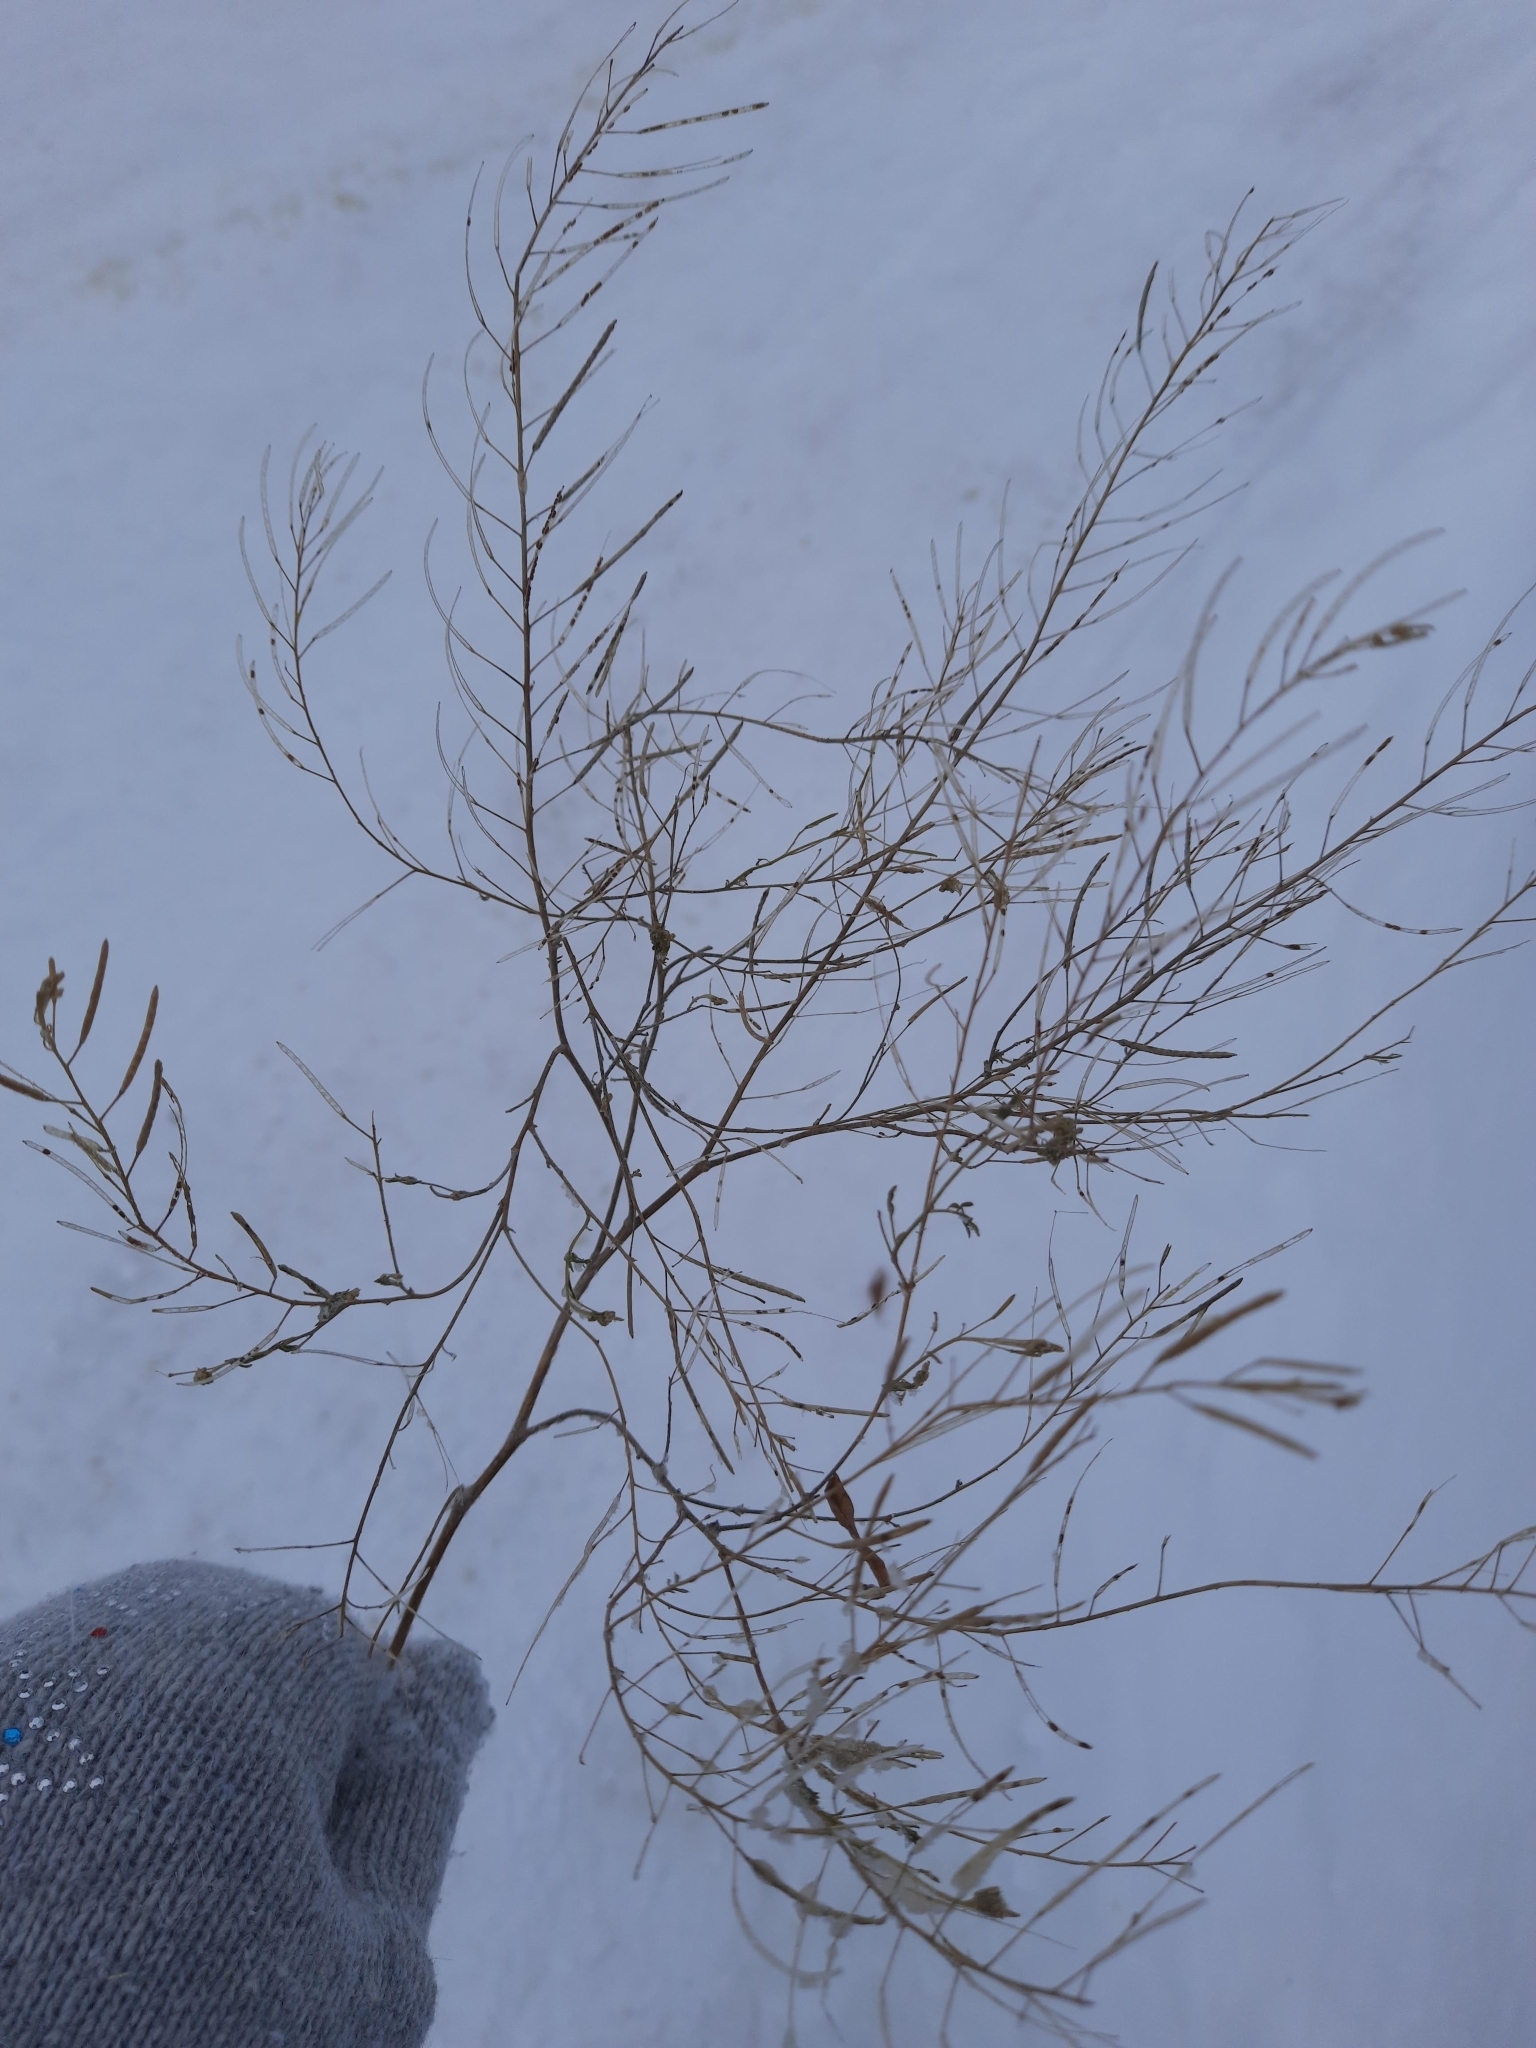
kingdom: Plantae
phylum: Tracheophyta
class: Magnoliopsida
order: Brassicales
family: Brassicaceae
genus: Erysimum
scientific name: Erysimum cheiranthoides
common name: Treacle mustard
